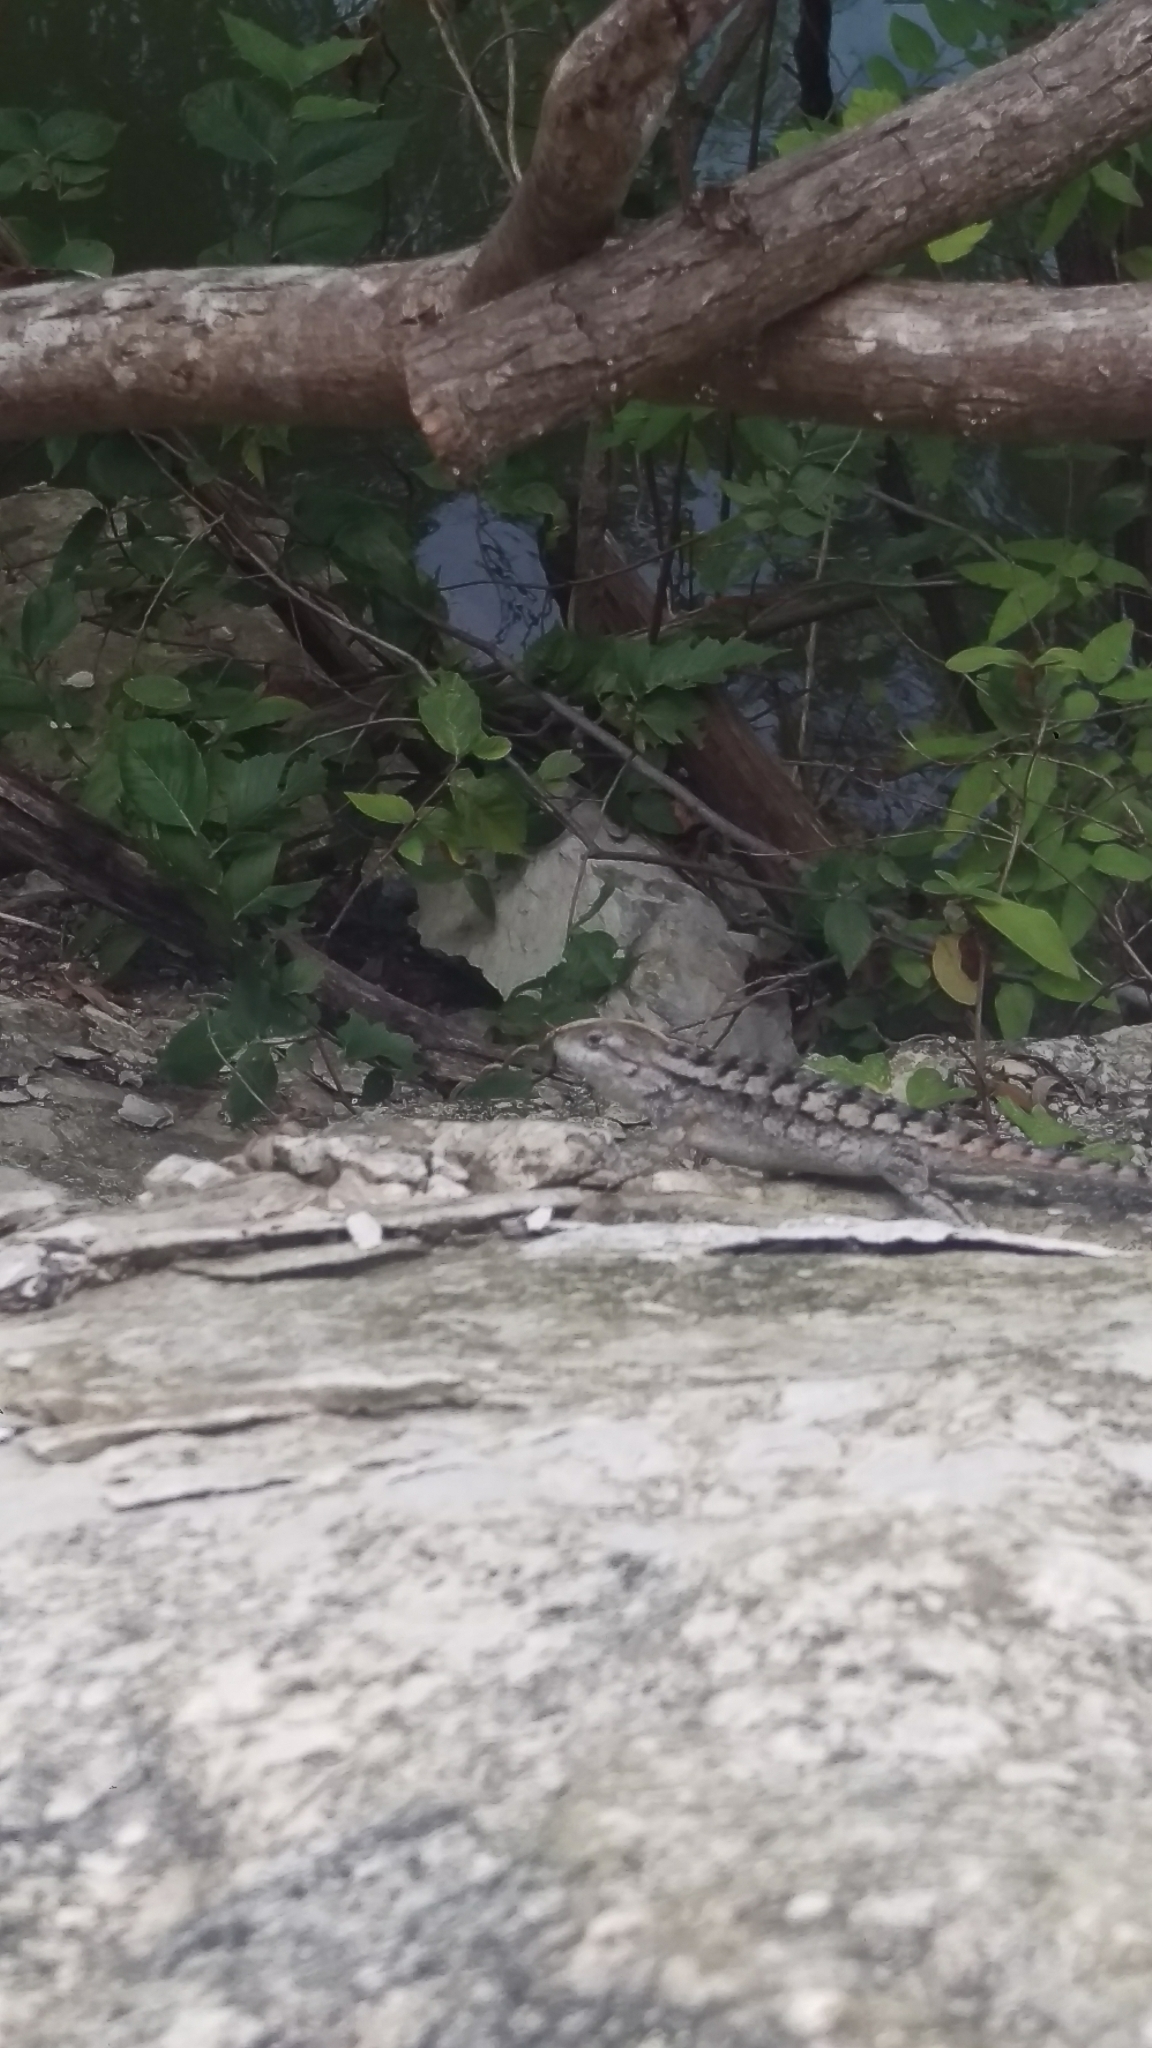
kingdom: Animalia
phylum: Chordata
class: Squamata
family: Phrynosomatidae
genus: Sceloporus
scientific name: Sceloporus olivaceus
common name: Texas spiny lizard
